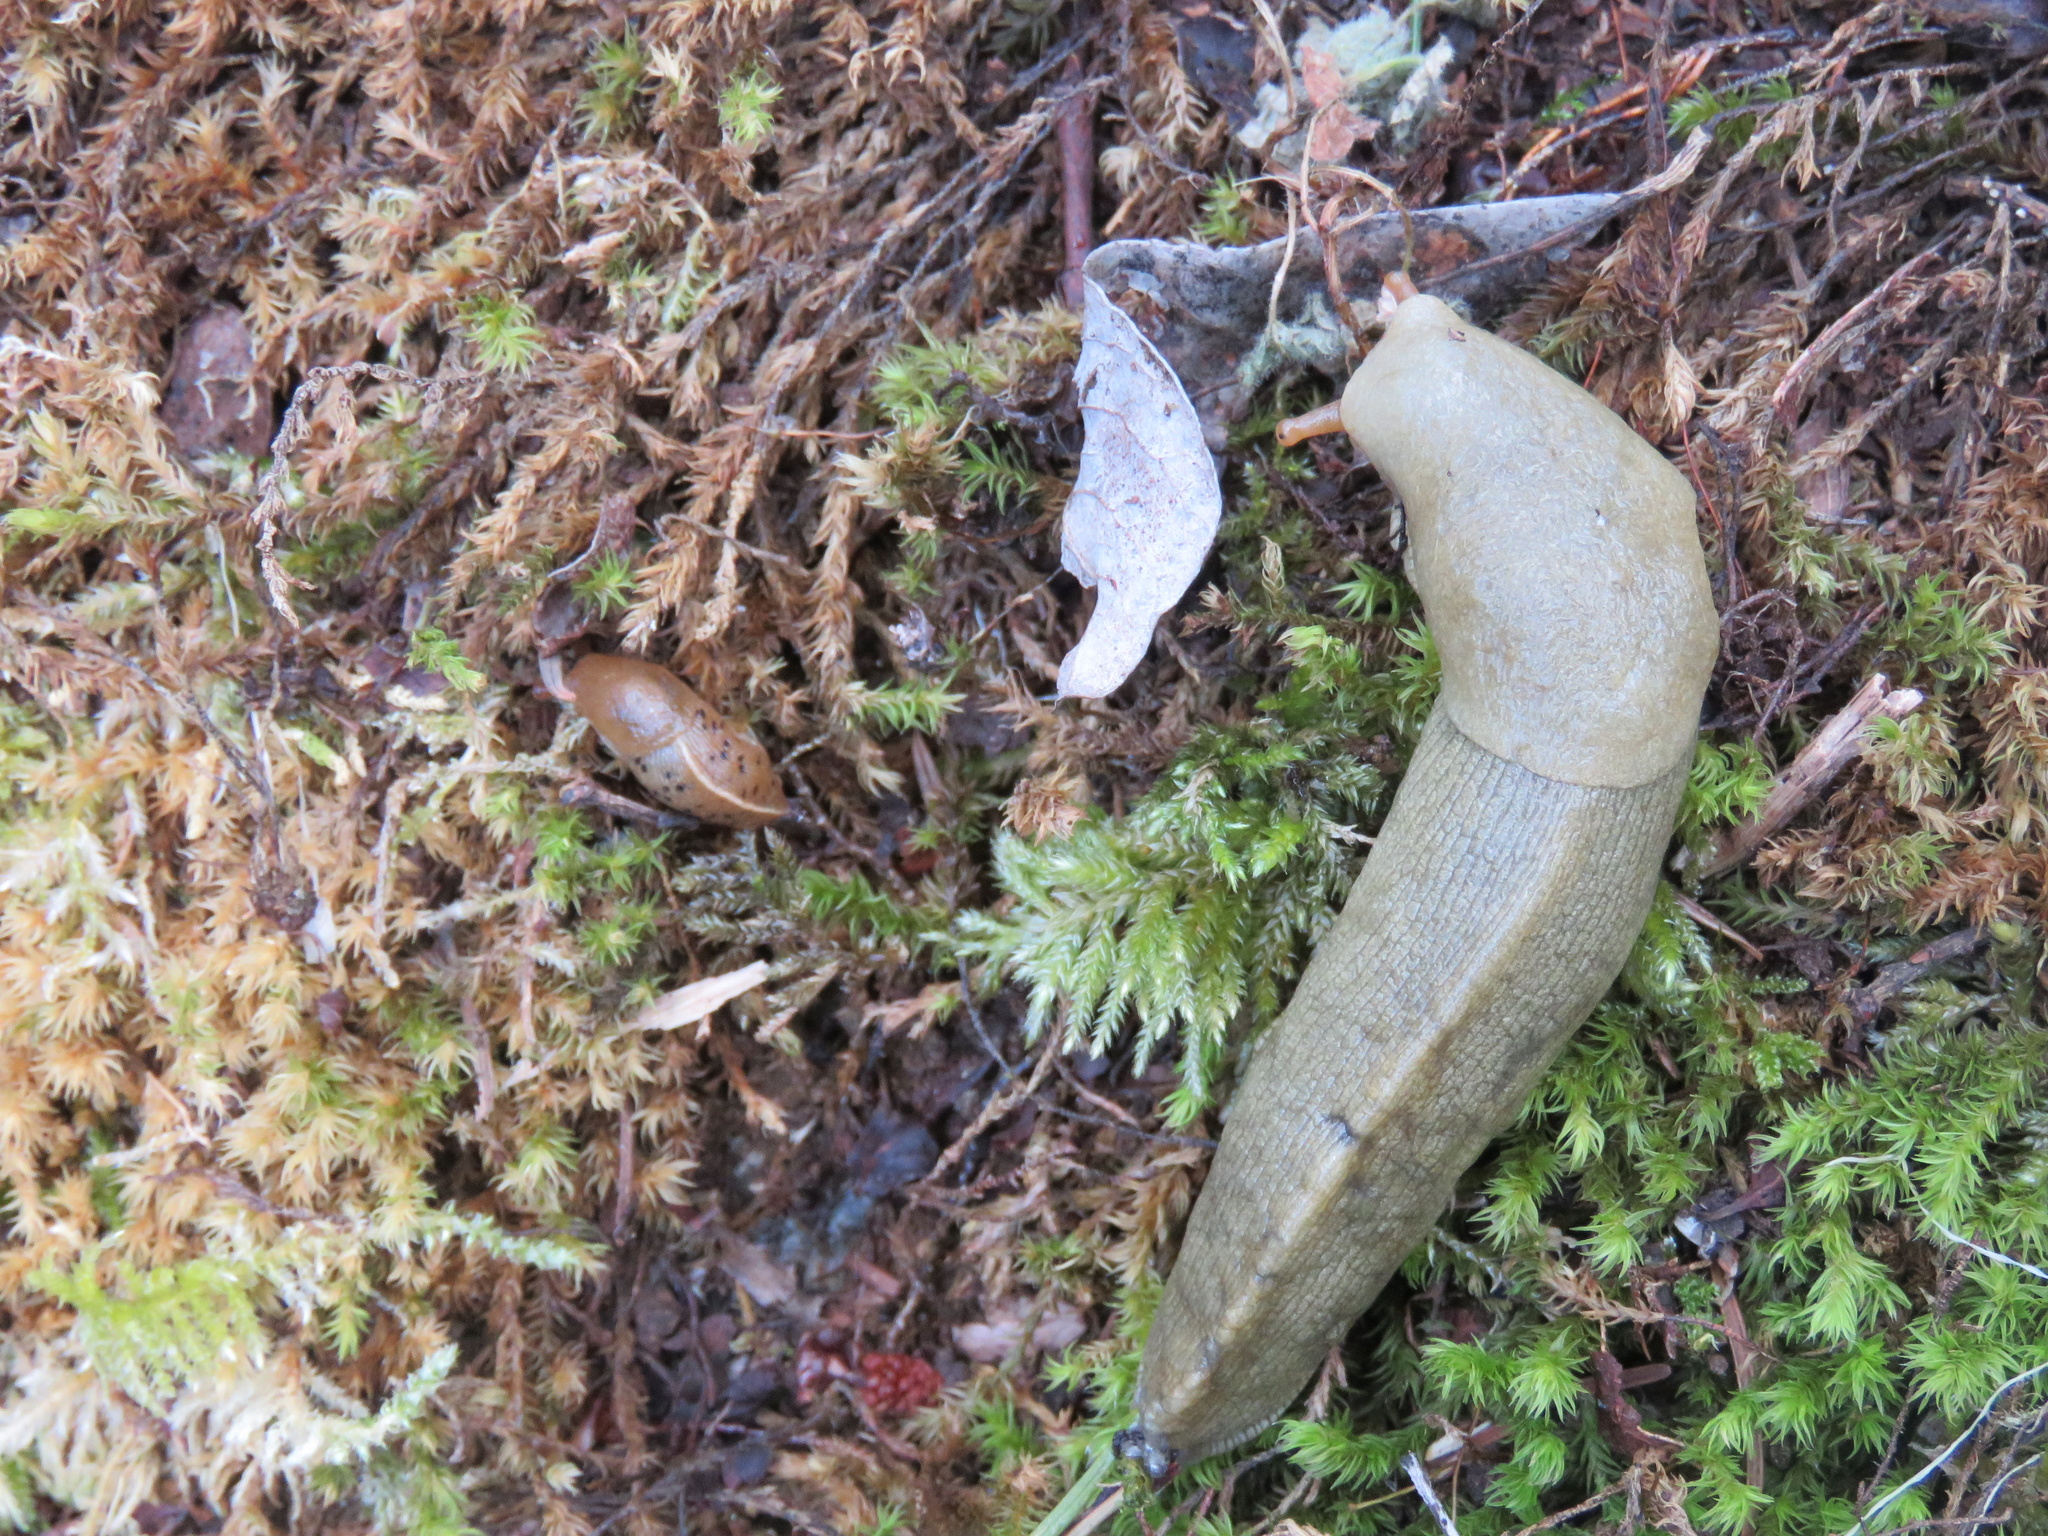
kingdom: Animalia
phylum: Mollusca
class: Gastropoda
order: Stylommatophora
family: Ariolimacidae
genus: Ariolimax
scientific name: Ariolimax columbianus
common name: Pacific banana slug
